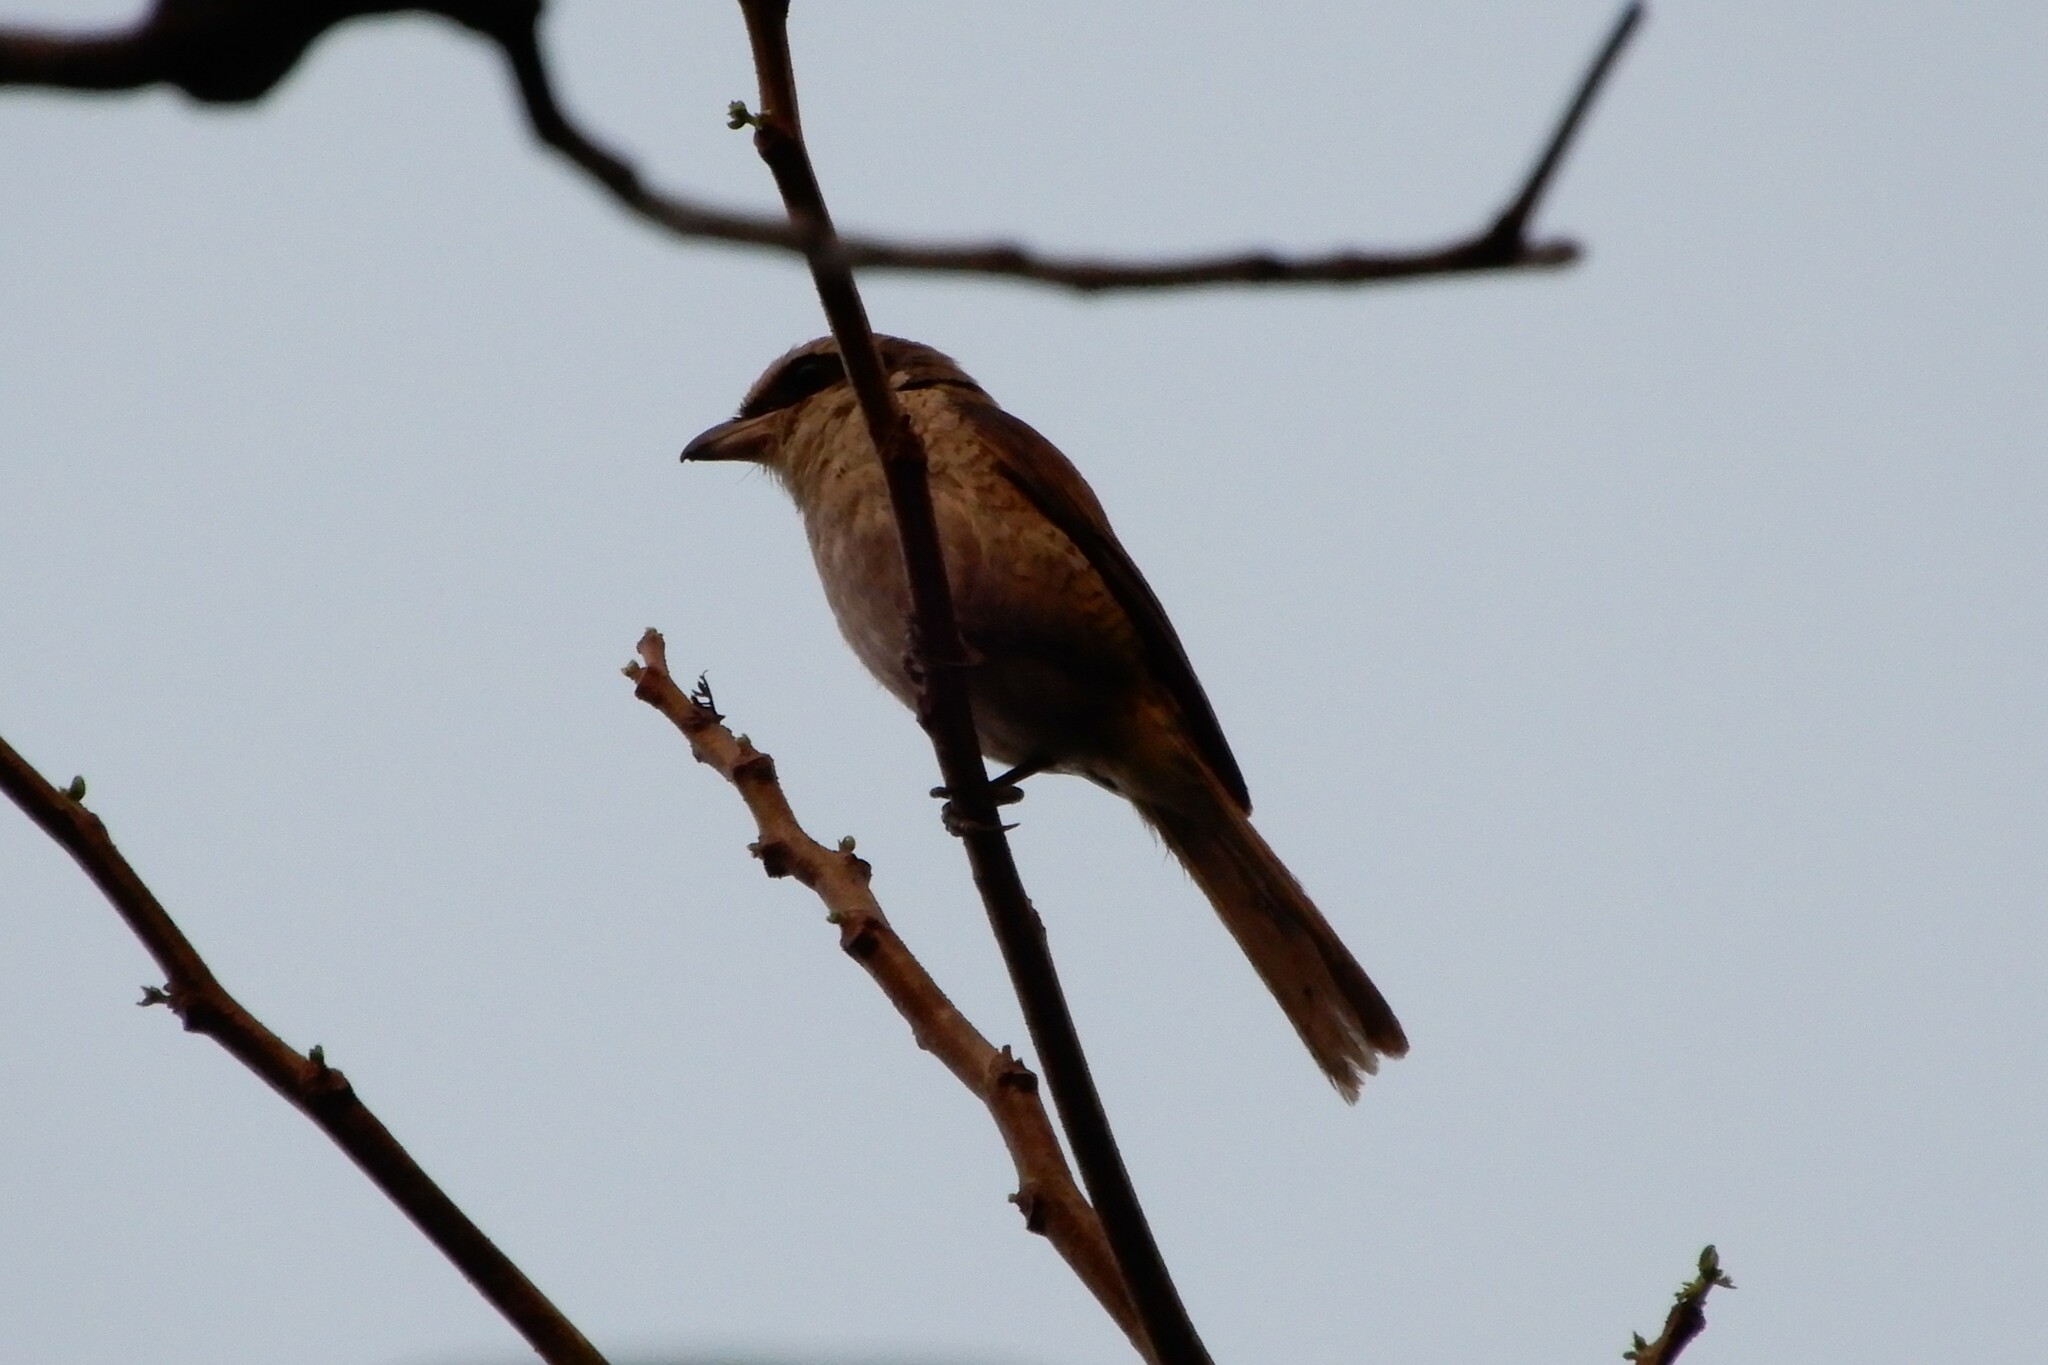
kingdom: Animalia
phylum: Chordata
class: Aves
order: Passeriformes
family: Laniidae
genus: Lanius
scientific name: Lanius cristatus
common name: Brown shrike
